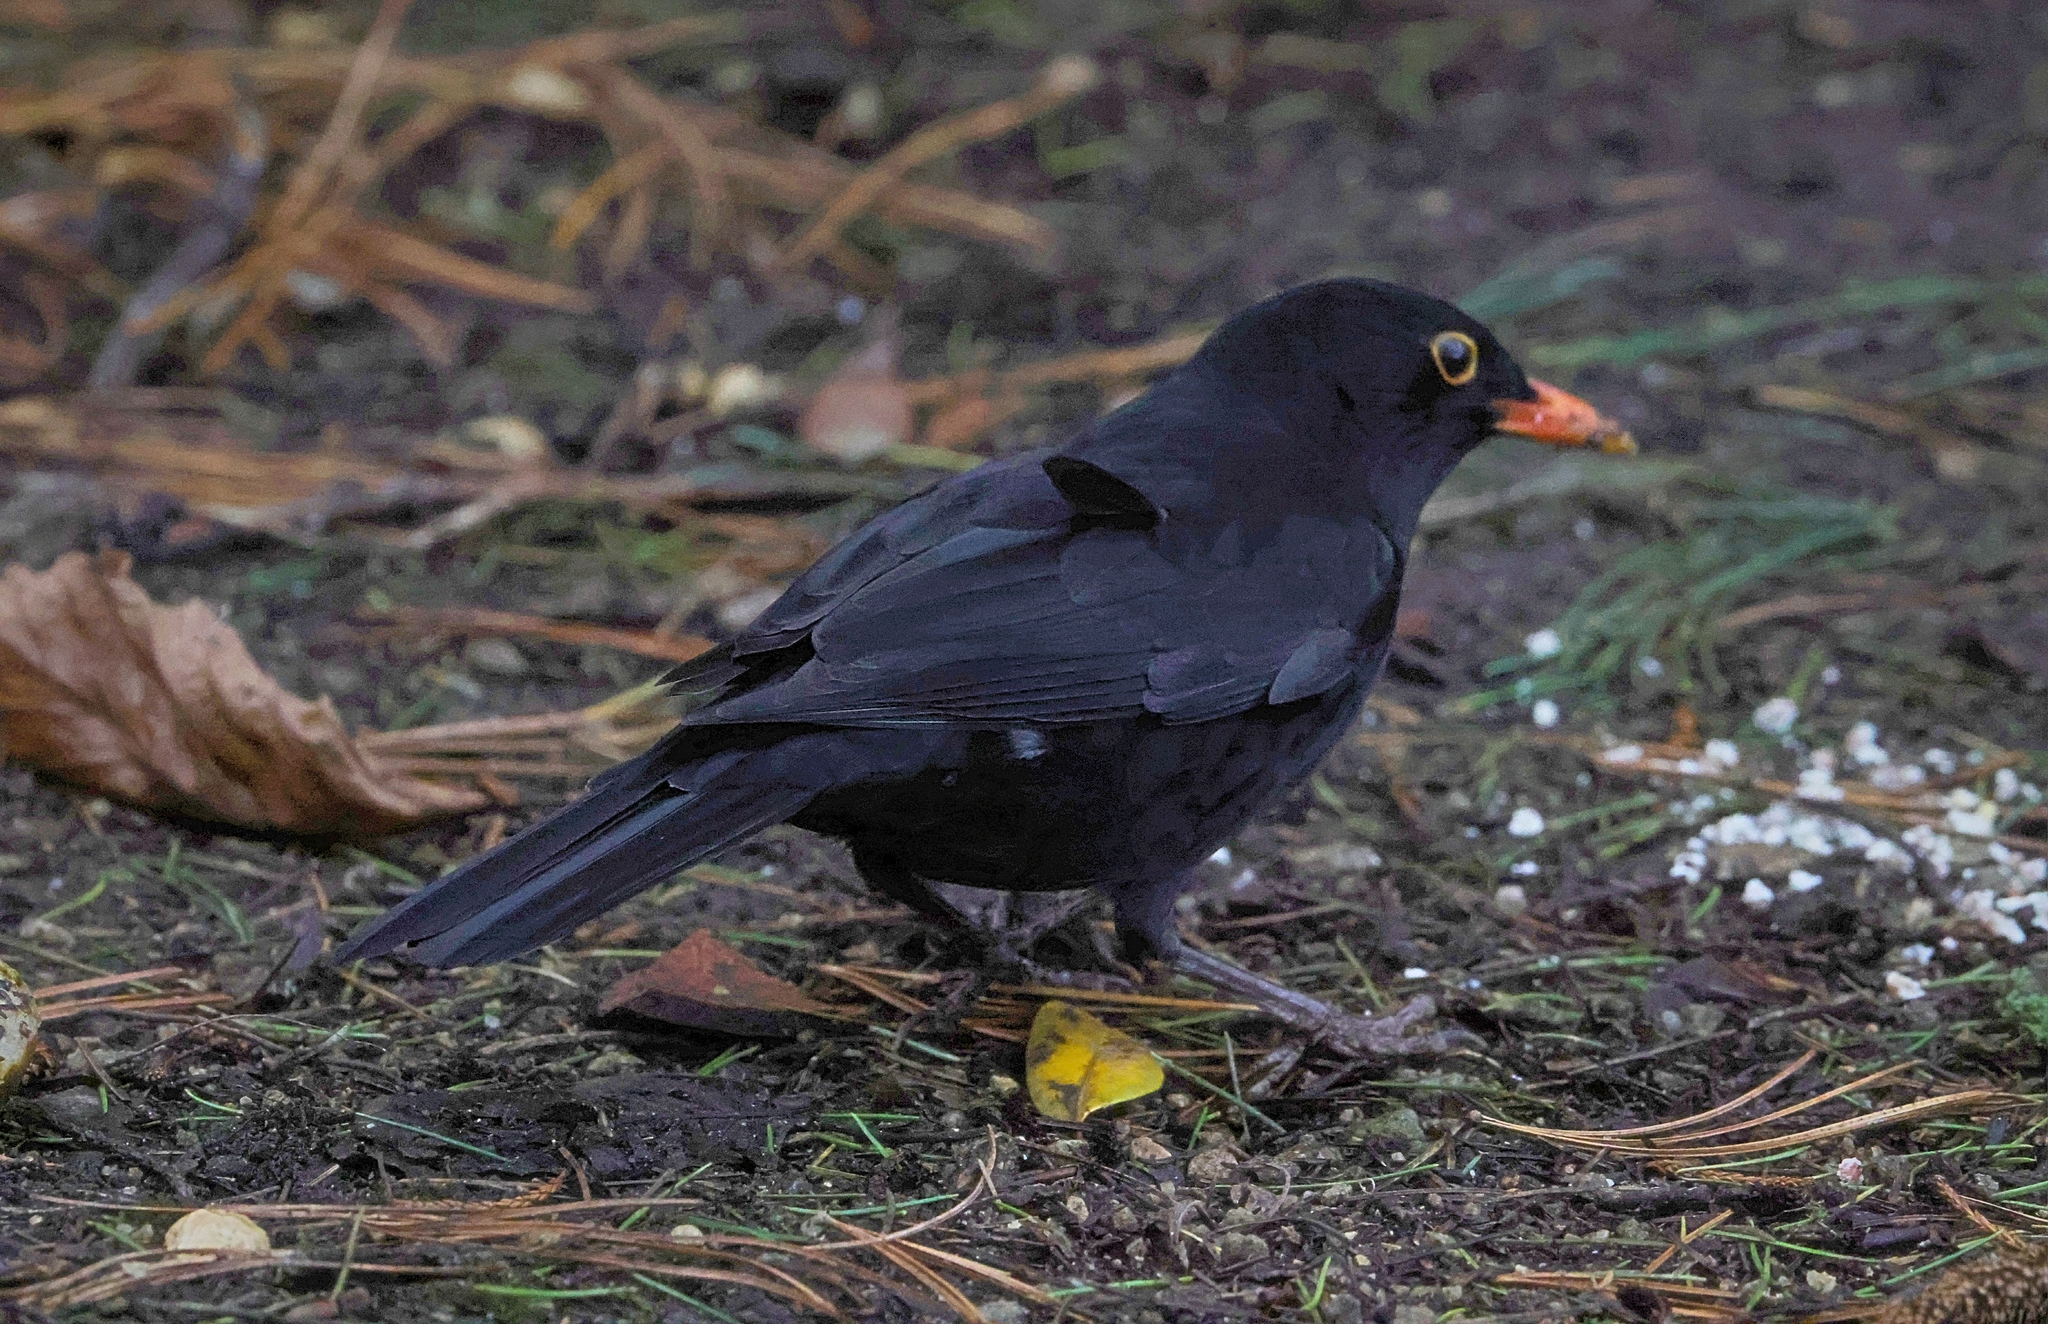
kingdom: Animalia
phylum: Chordata
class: Aves
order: Passeriformes
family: Turdidae
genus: Turdus
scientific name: Turdus merula
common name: Common blackbird
